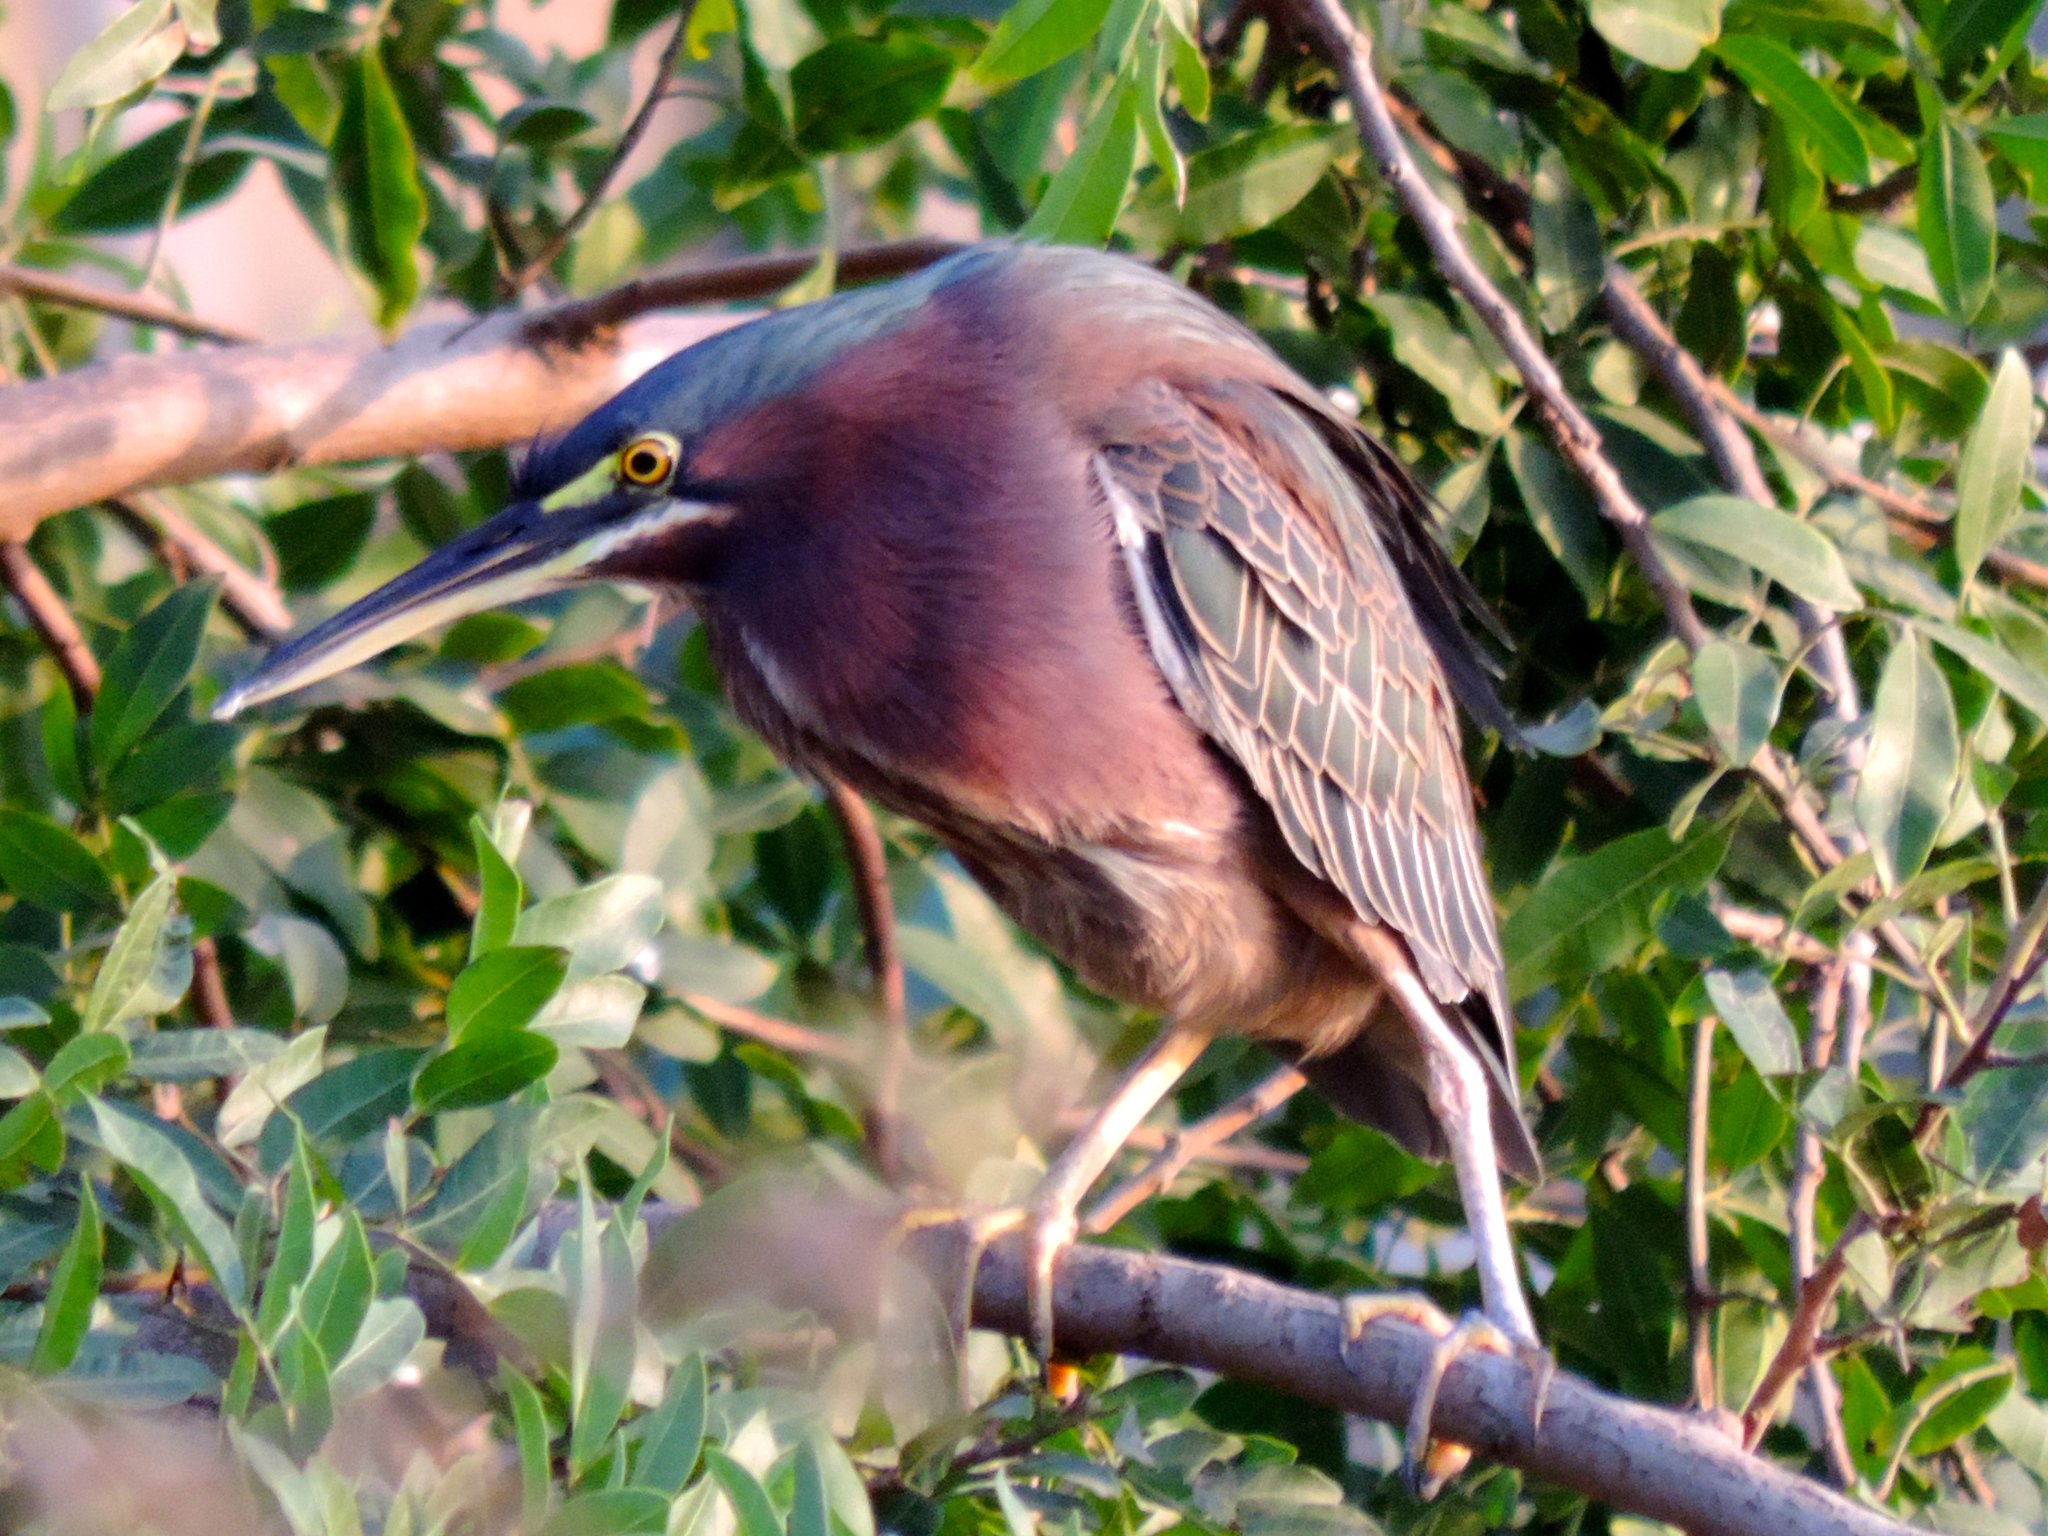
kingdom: Animalia
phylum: Chordata
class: Aves
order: Pelecaniformes
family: Ardeidae
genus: Butorides
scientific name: Butorides virescens
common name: Green heron
